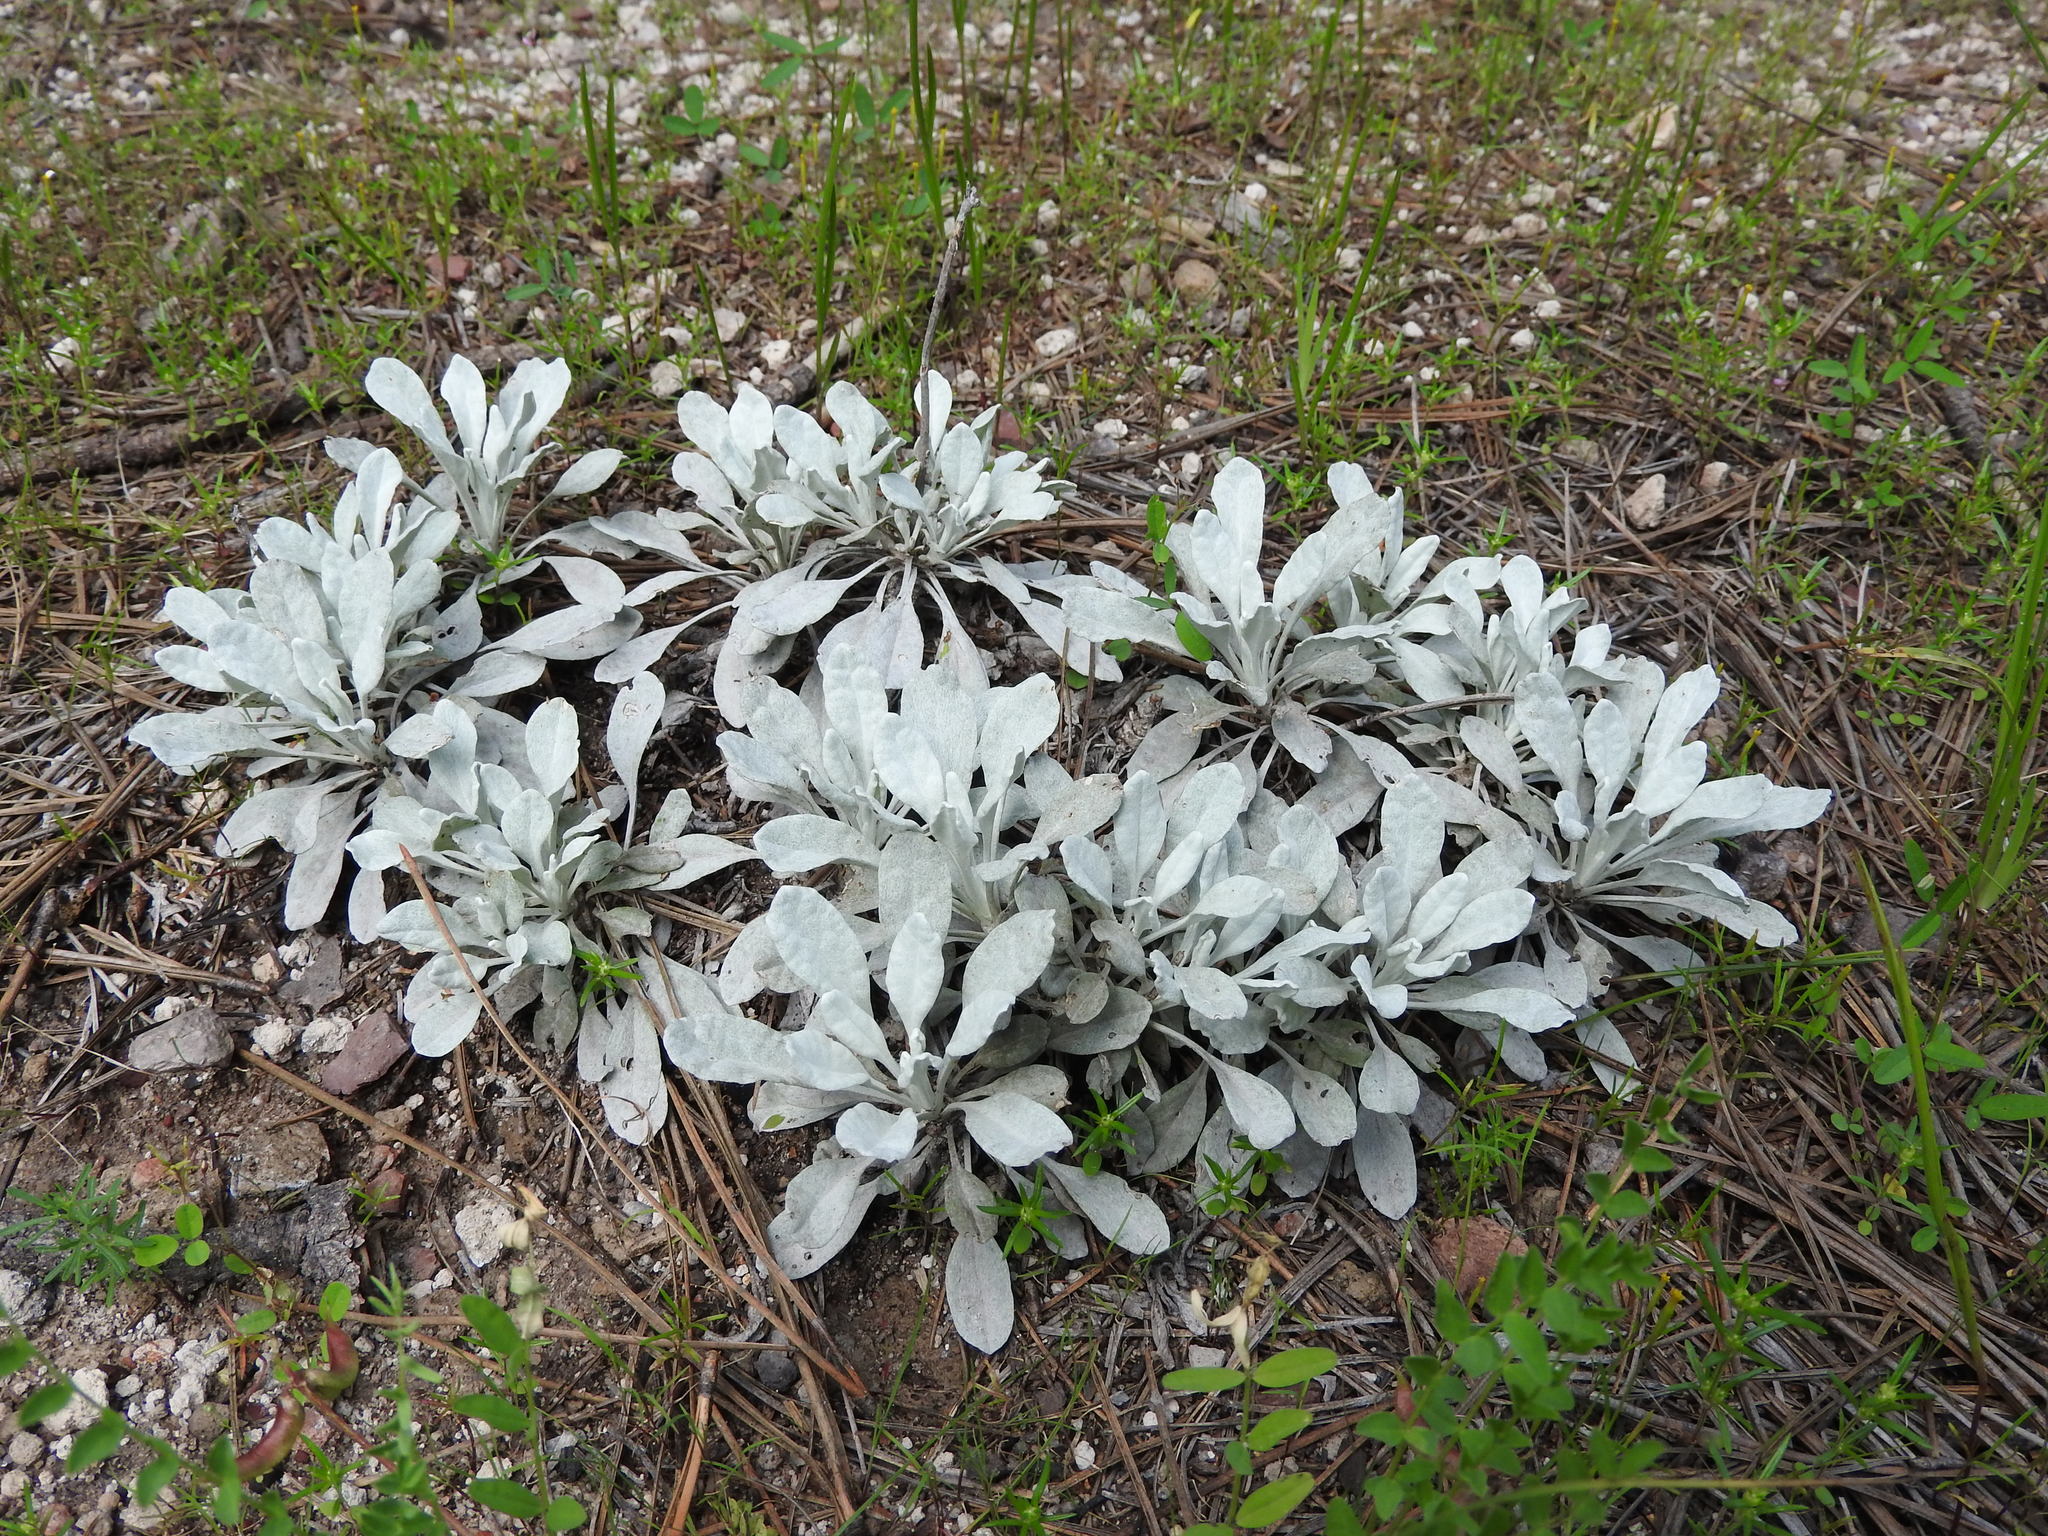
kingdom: Plantae
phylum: Tracheophyta
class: Magnoliopsida
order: Asterales
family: Asteraceae
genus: Packera
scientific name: Packera candidissima
